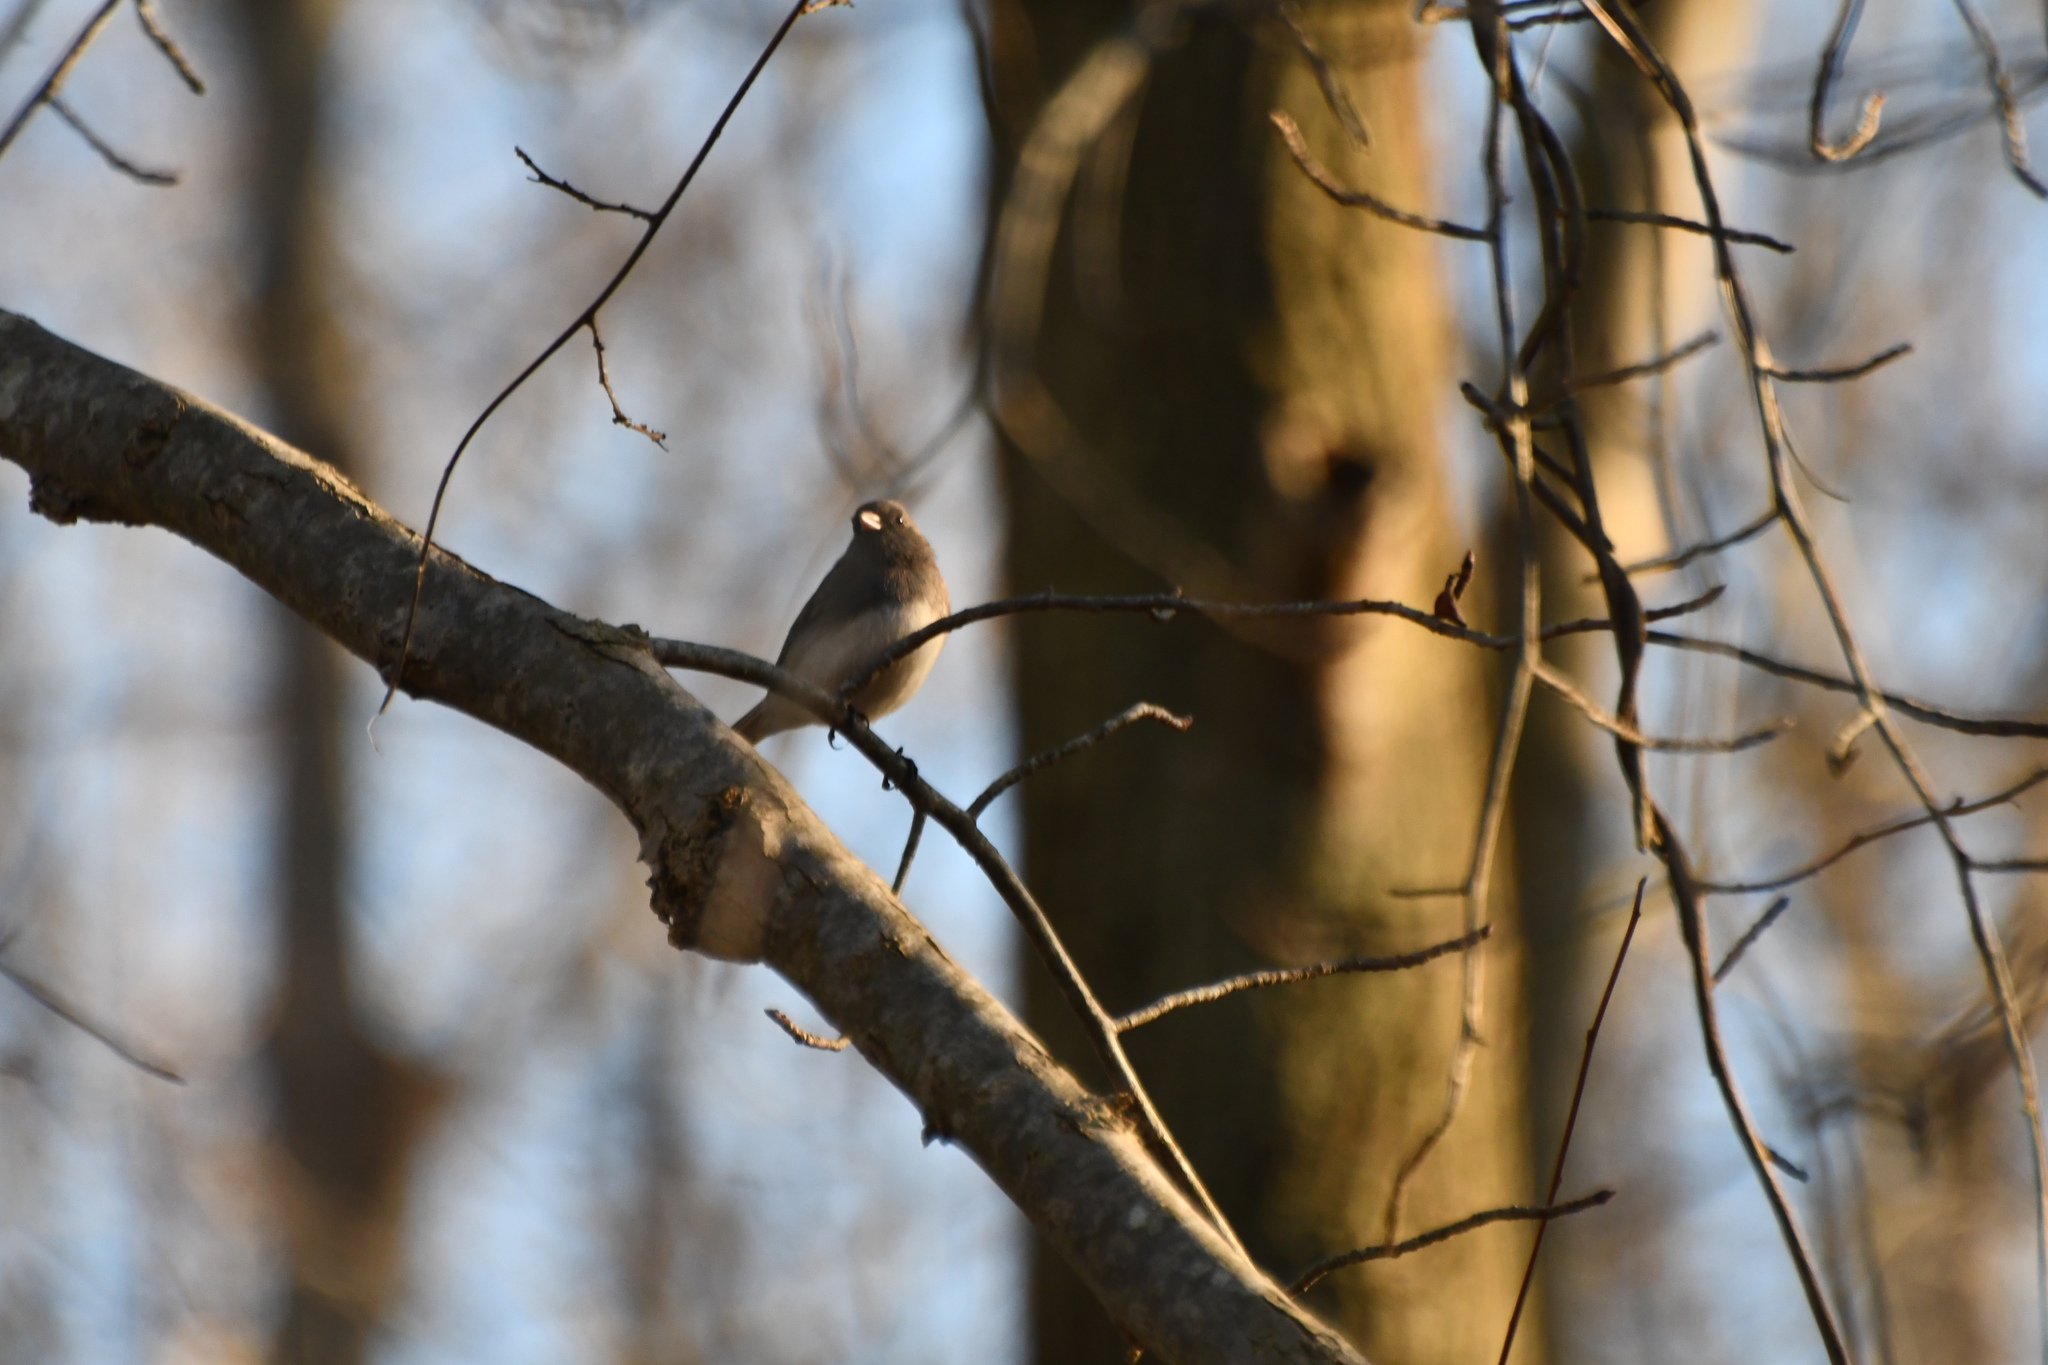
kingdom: Animalia
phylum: Chordata
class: Aves
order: Passeriformes
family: Passerellidae
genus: Junco
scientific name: Junco hyemalis
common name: Dark-eyed junco
